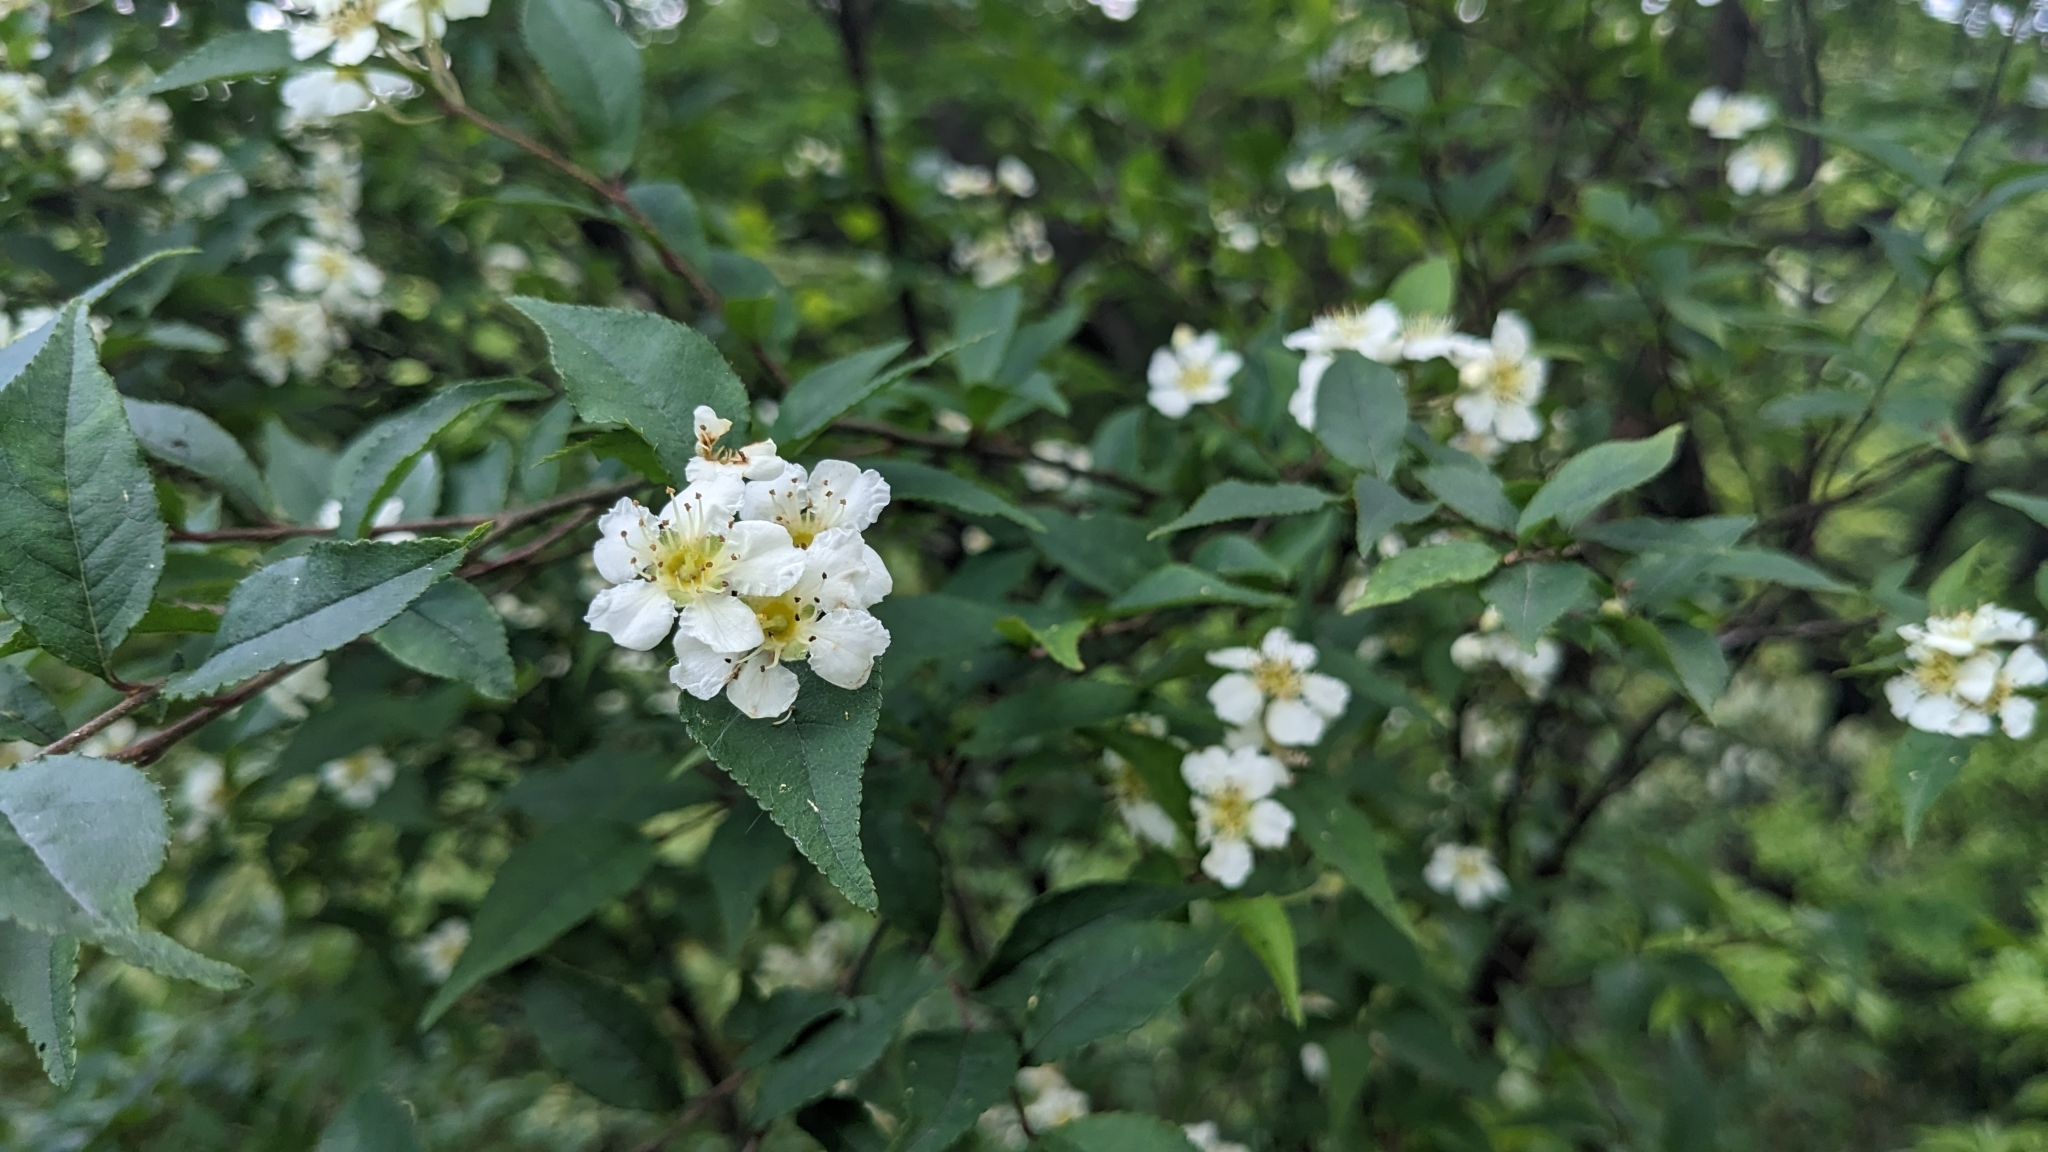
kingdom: Plantae
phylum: Tracheophyta
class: Magnoliopsida
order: Rosales
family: Rosaceae
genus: Pourthiaea
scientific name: Pourthiaea villosa
